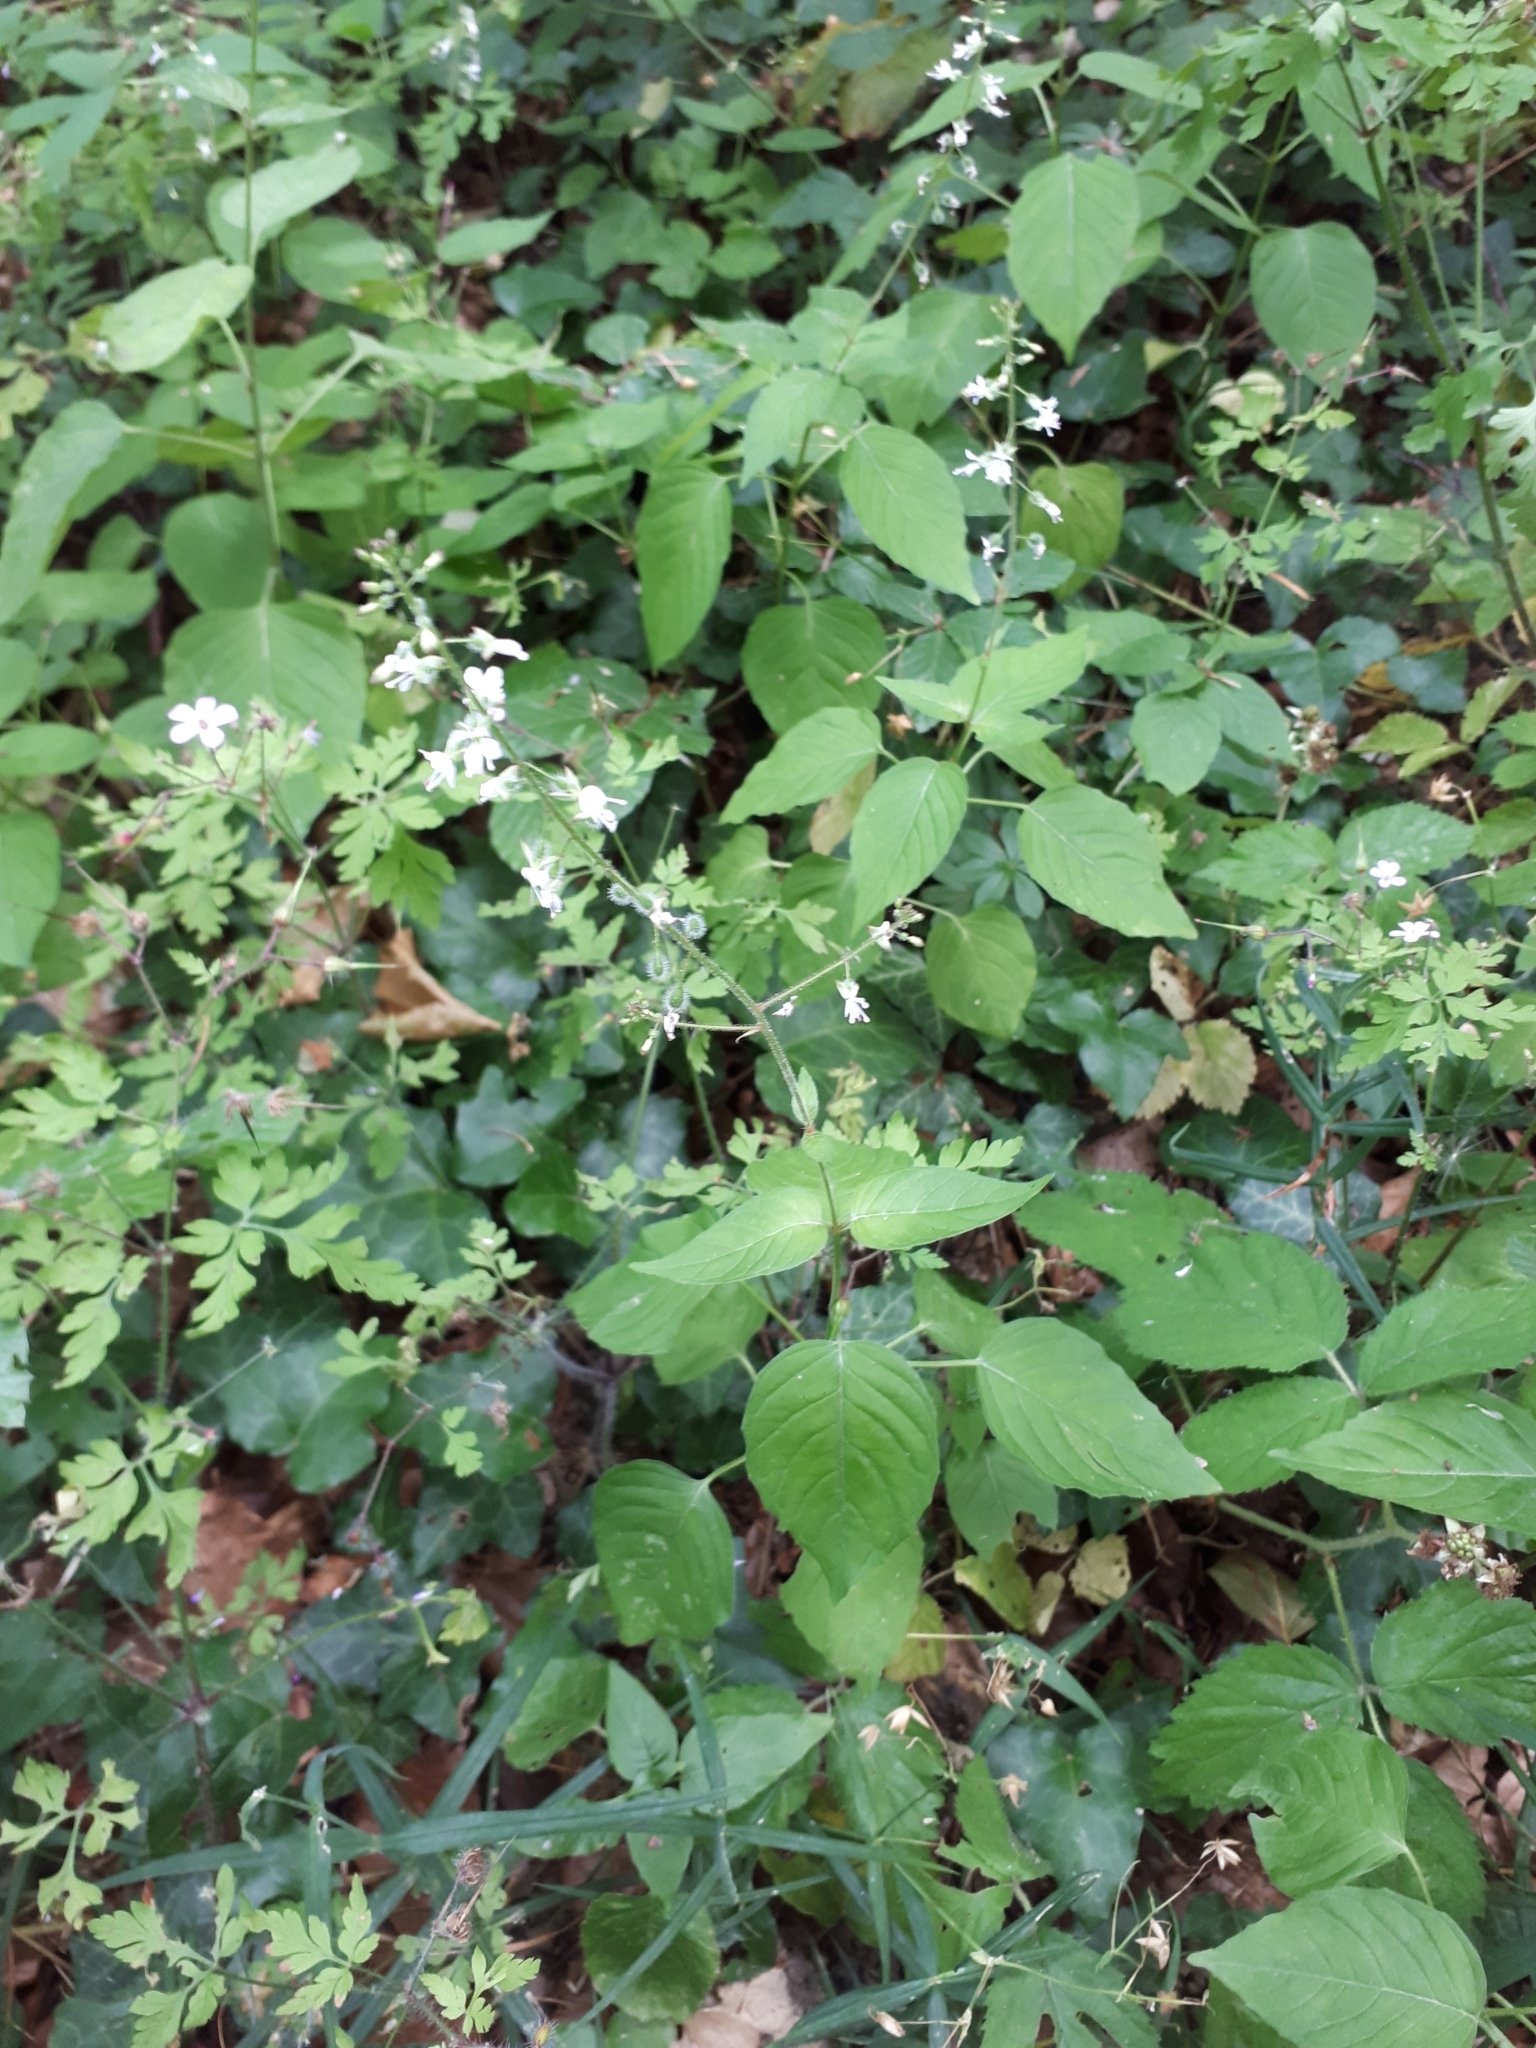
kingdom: Plantae
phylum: Tracheophyta
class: Magnoliopsida
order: Myrtales
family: Onagraceae
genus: Circaea
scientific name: Circaea lutetiana
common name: Enchanter's-nightshade
